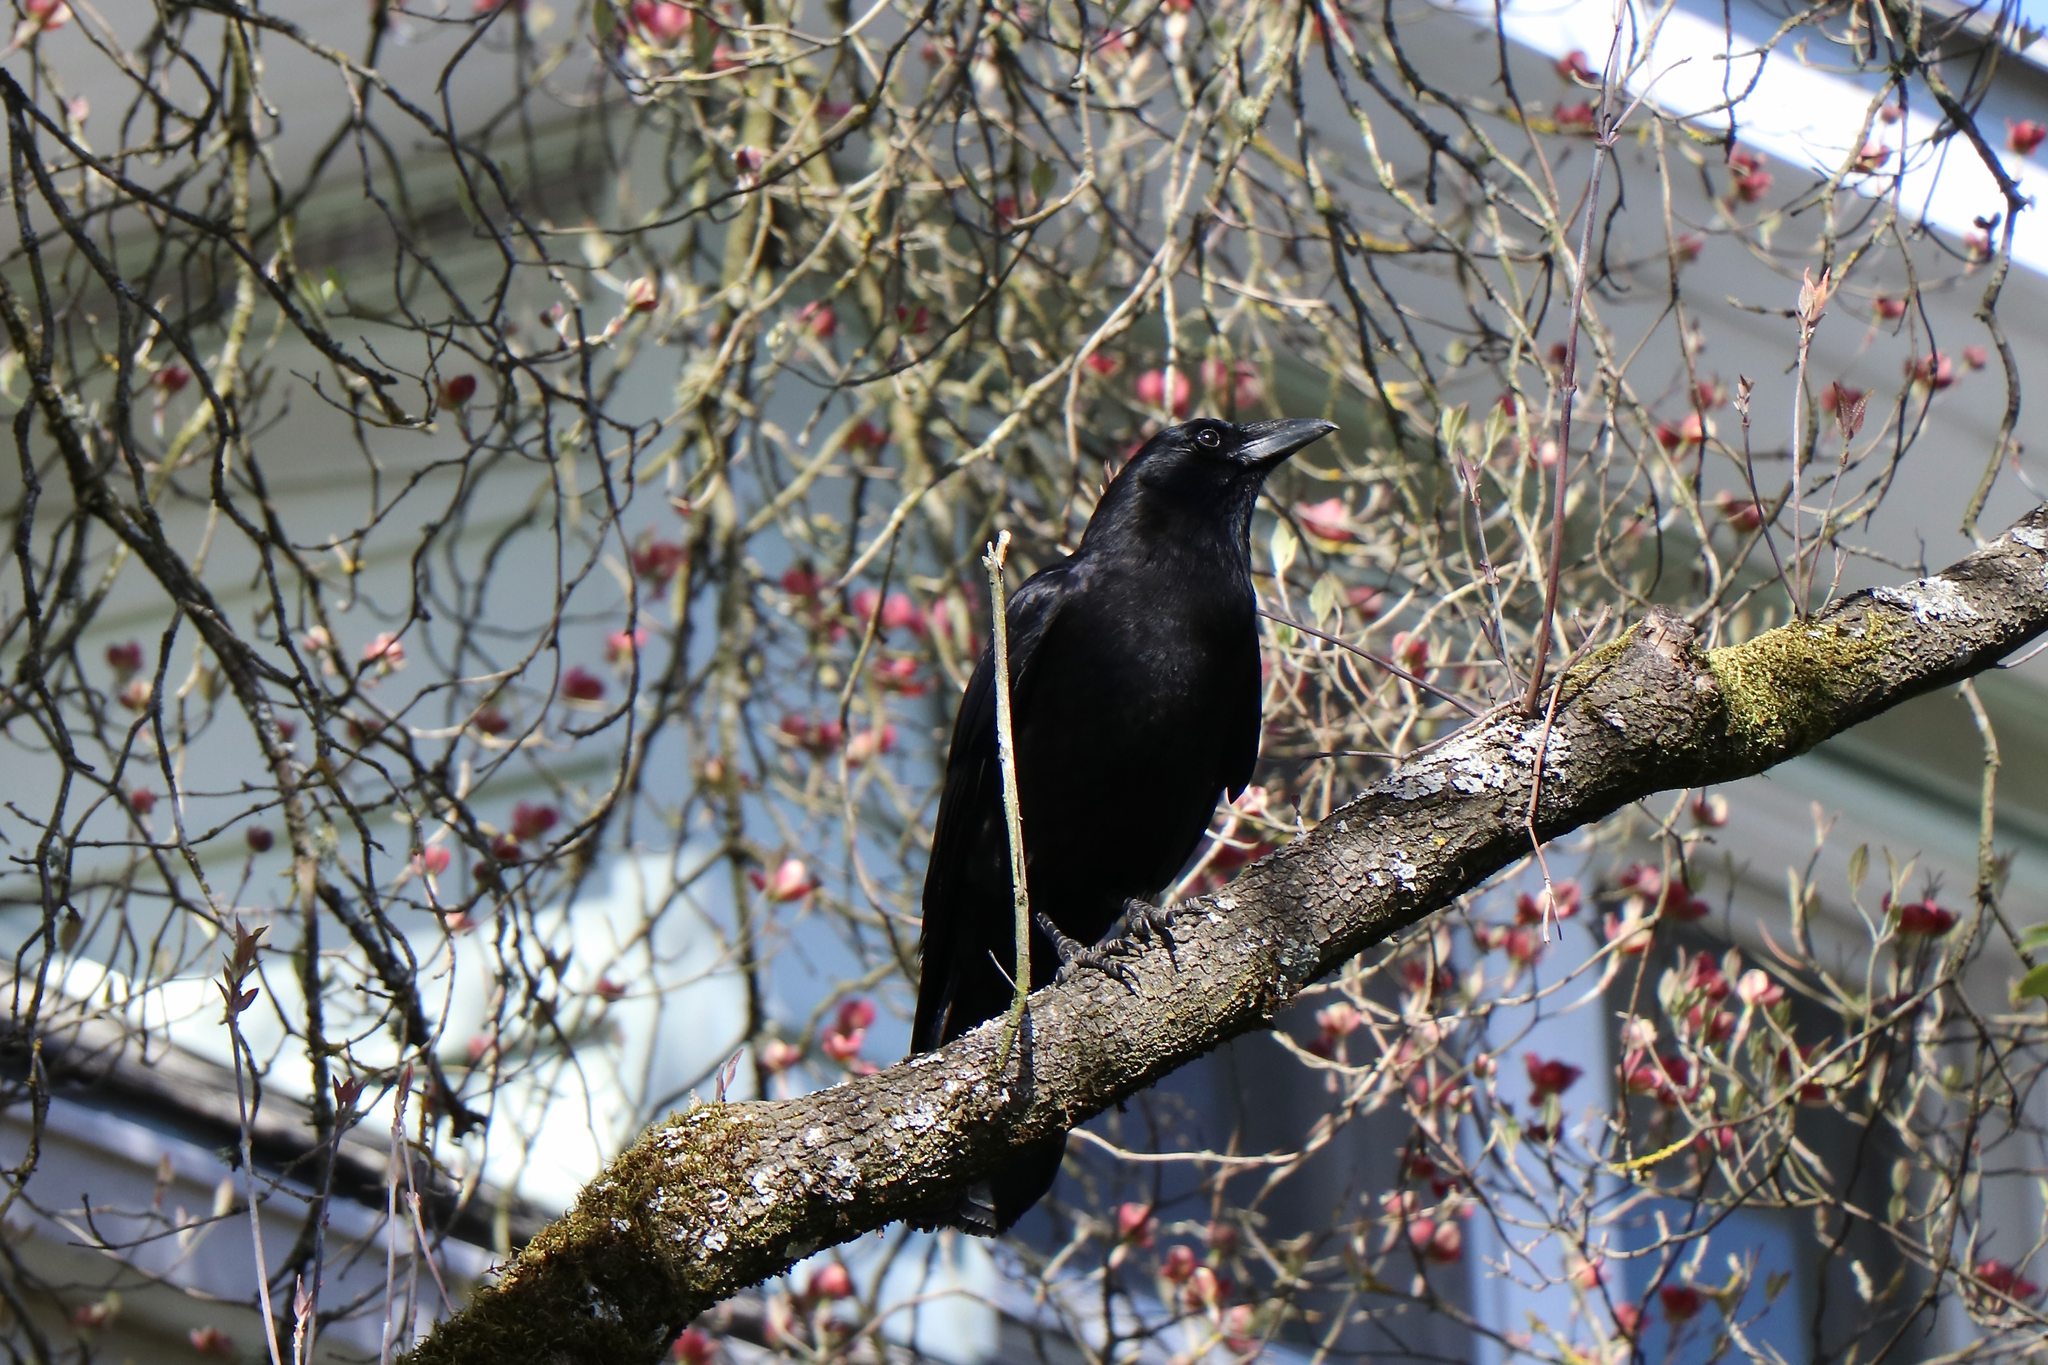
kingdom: Animalia
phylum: Chordata
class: Aves
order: Passeriformes
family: Corvidae
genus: Corvus
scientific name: Corvus brachyrhynchos
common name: American crow
